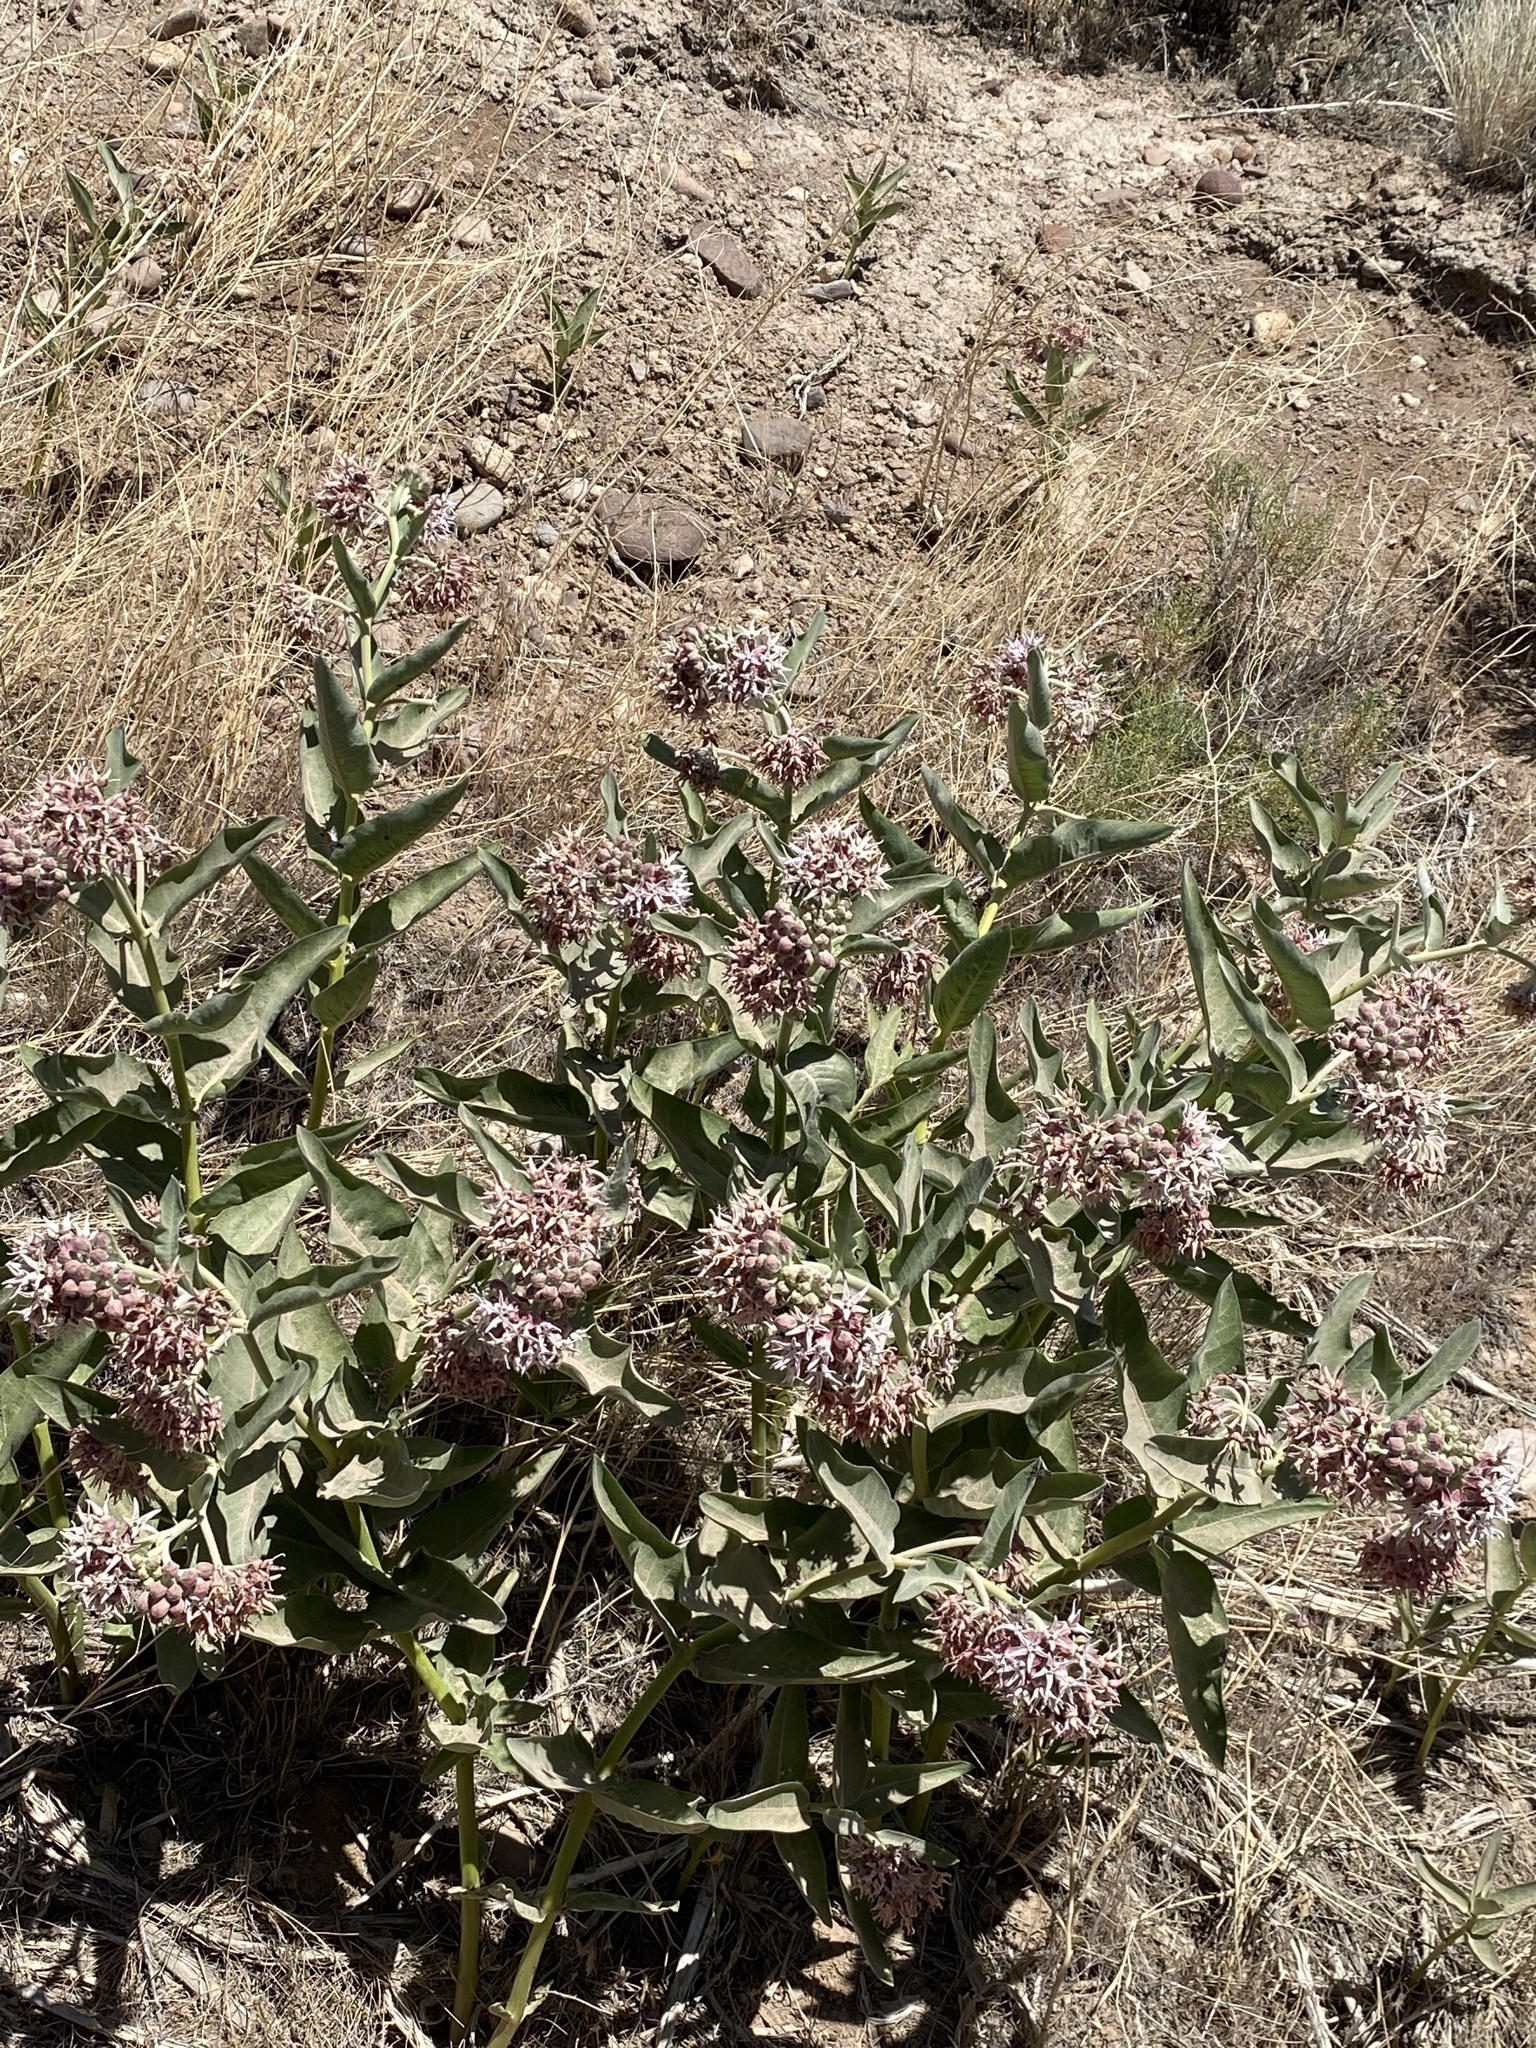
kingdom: Plantae
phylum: Tracheophyta
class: Magnoliopsida
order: Gentianales
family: Apocynaceae
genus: Asclepias
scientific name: Asclepias speciosa
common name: Showy milkweed
